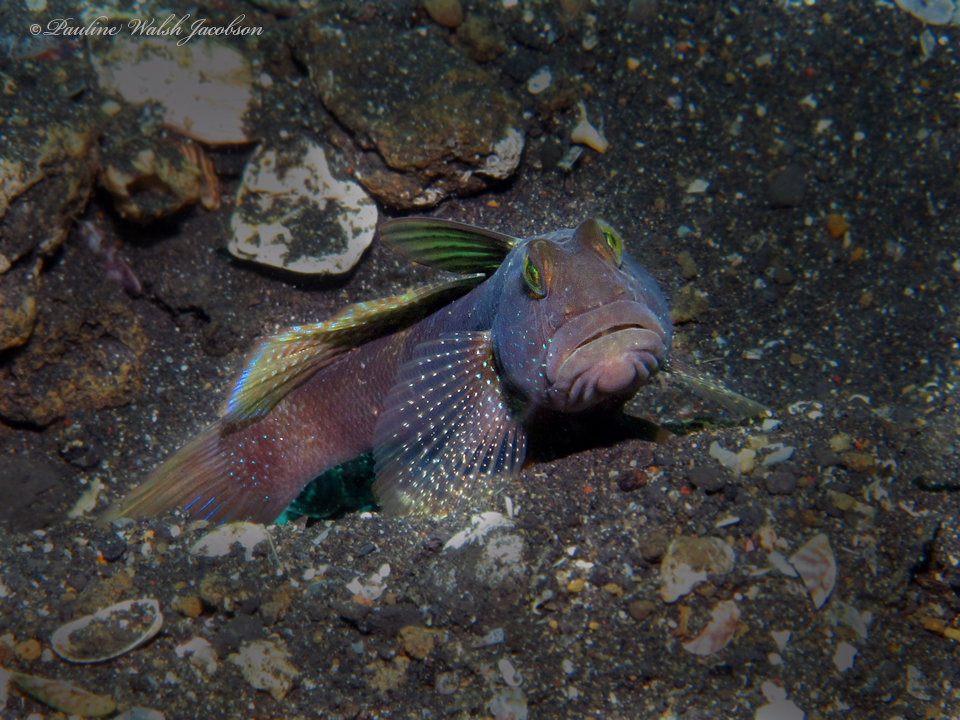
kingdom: Animalia
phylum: Chordata
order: Perciformes
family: Gobiidae
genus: Cryptocentrus
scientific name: Cryptocentrus fasciatus
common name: Barred prawn-goby
